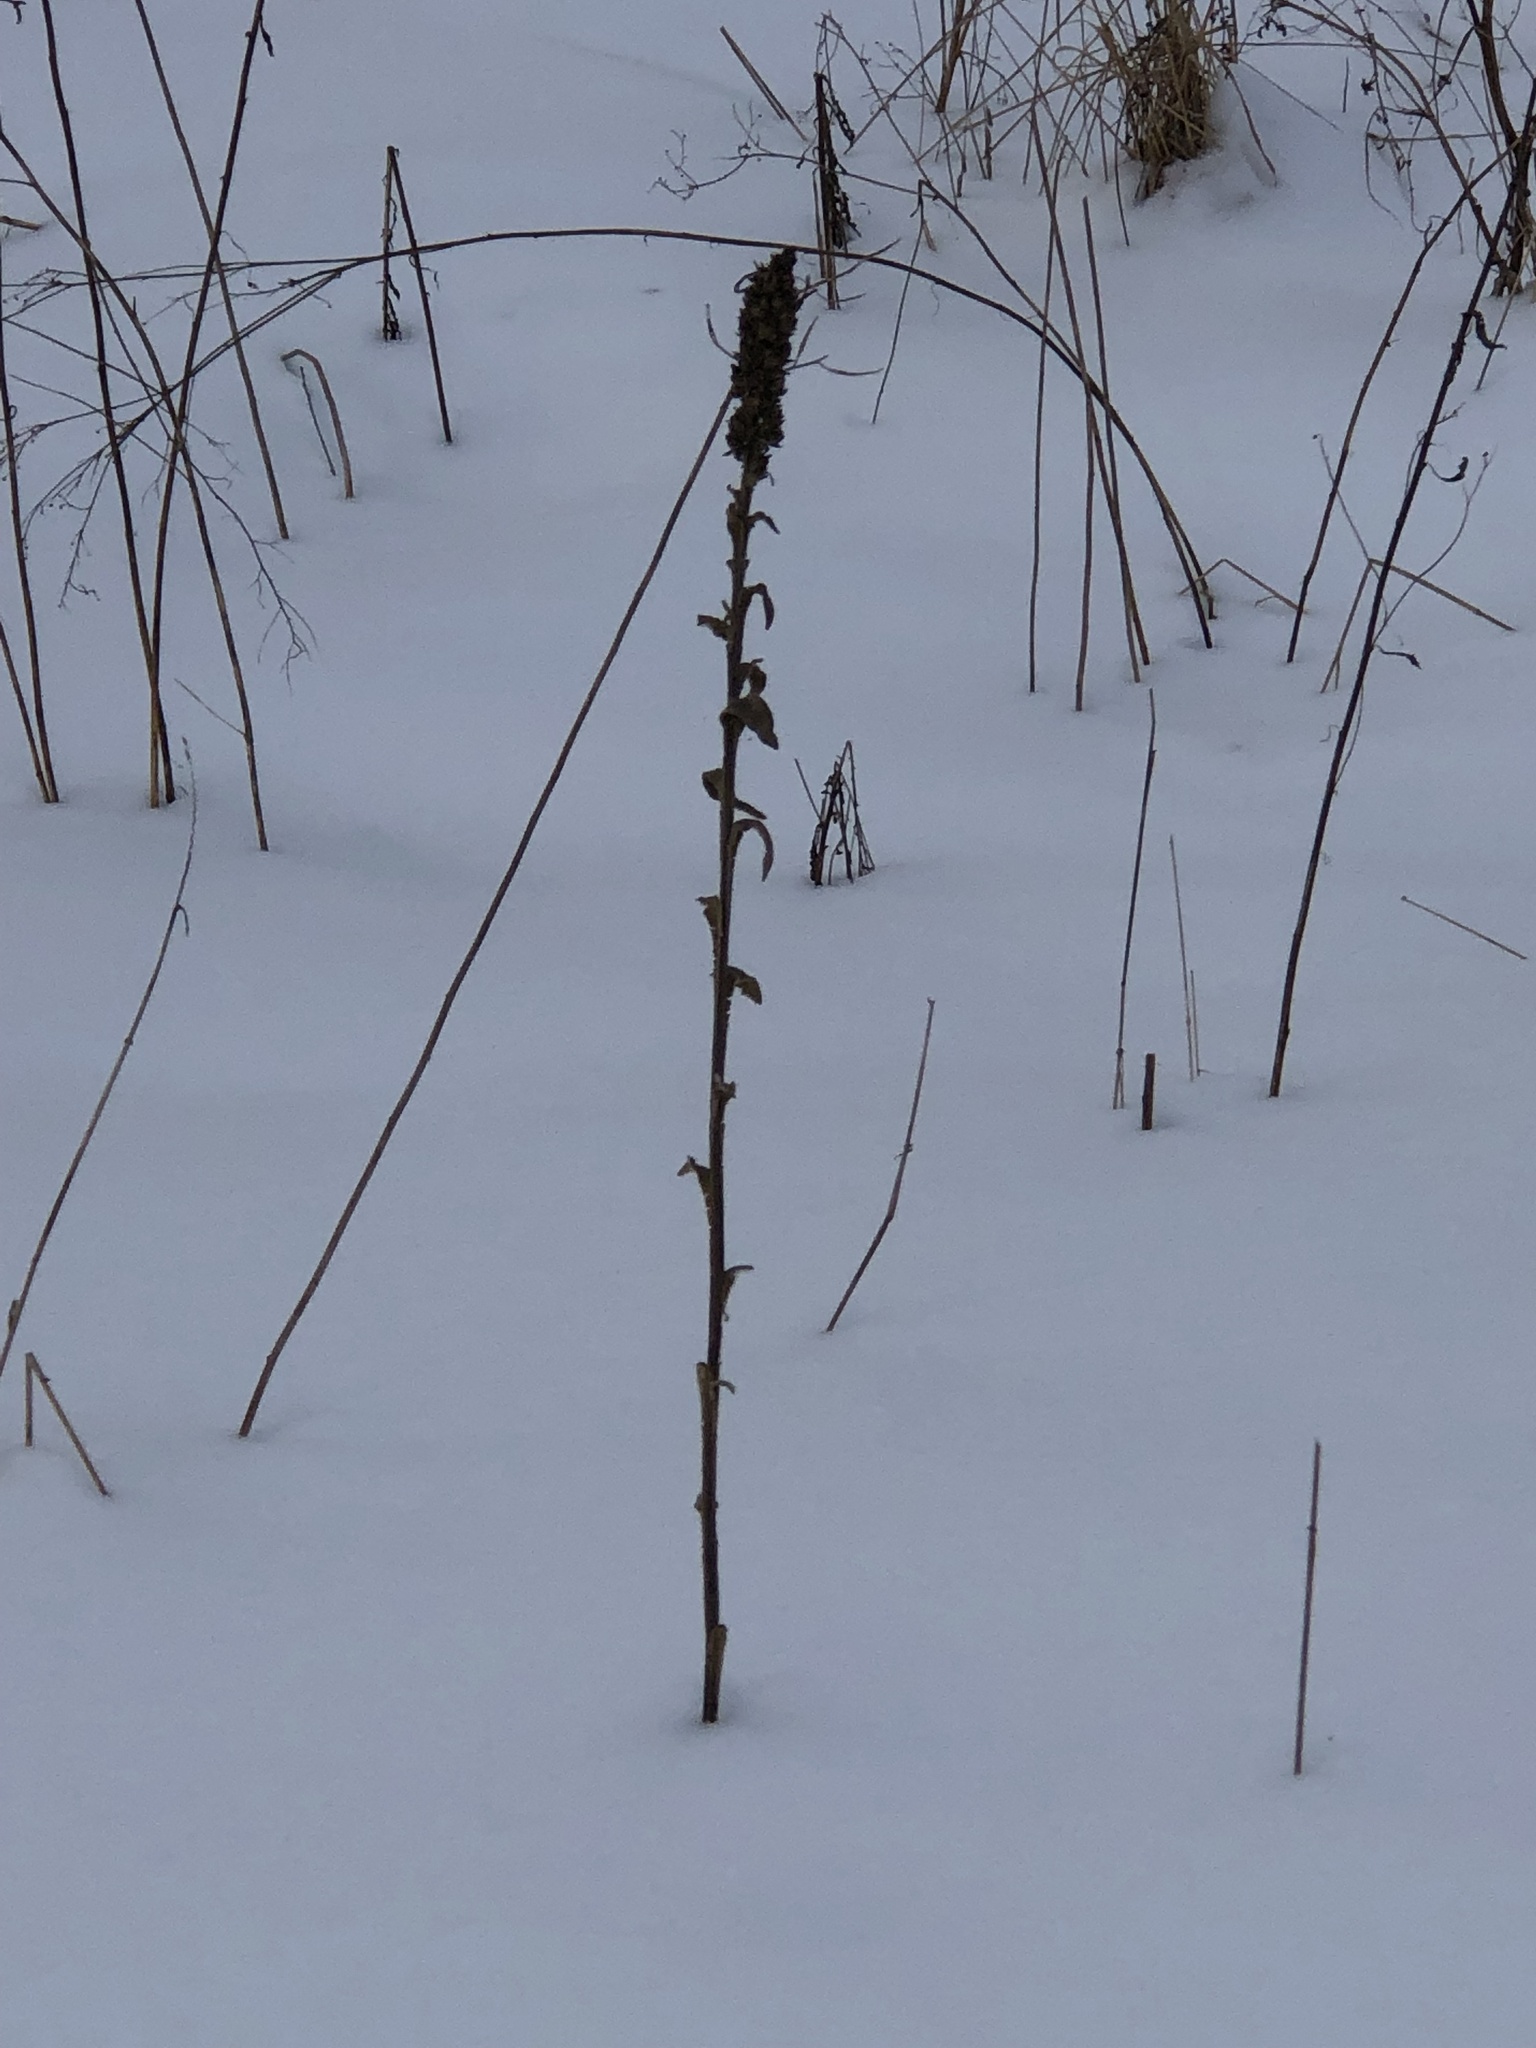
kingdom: Plantae
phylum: Tracheophyta
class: Magnoliopsida
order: Lamiales
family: Scrophulariaceae
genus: Verbascum
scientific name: Verbascum thapsus
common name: Common mullein
